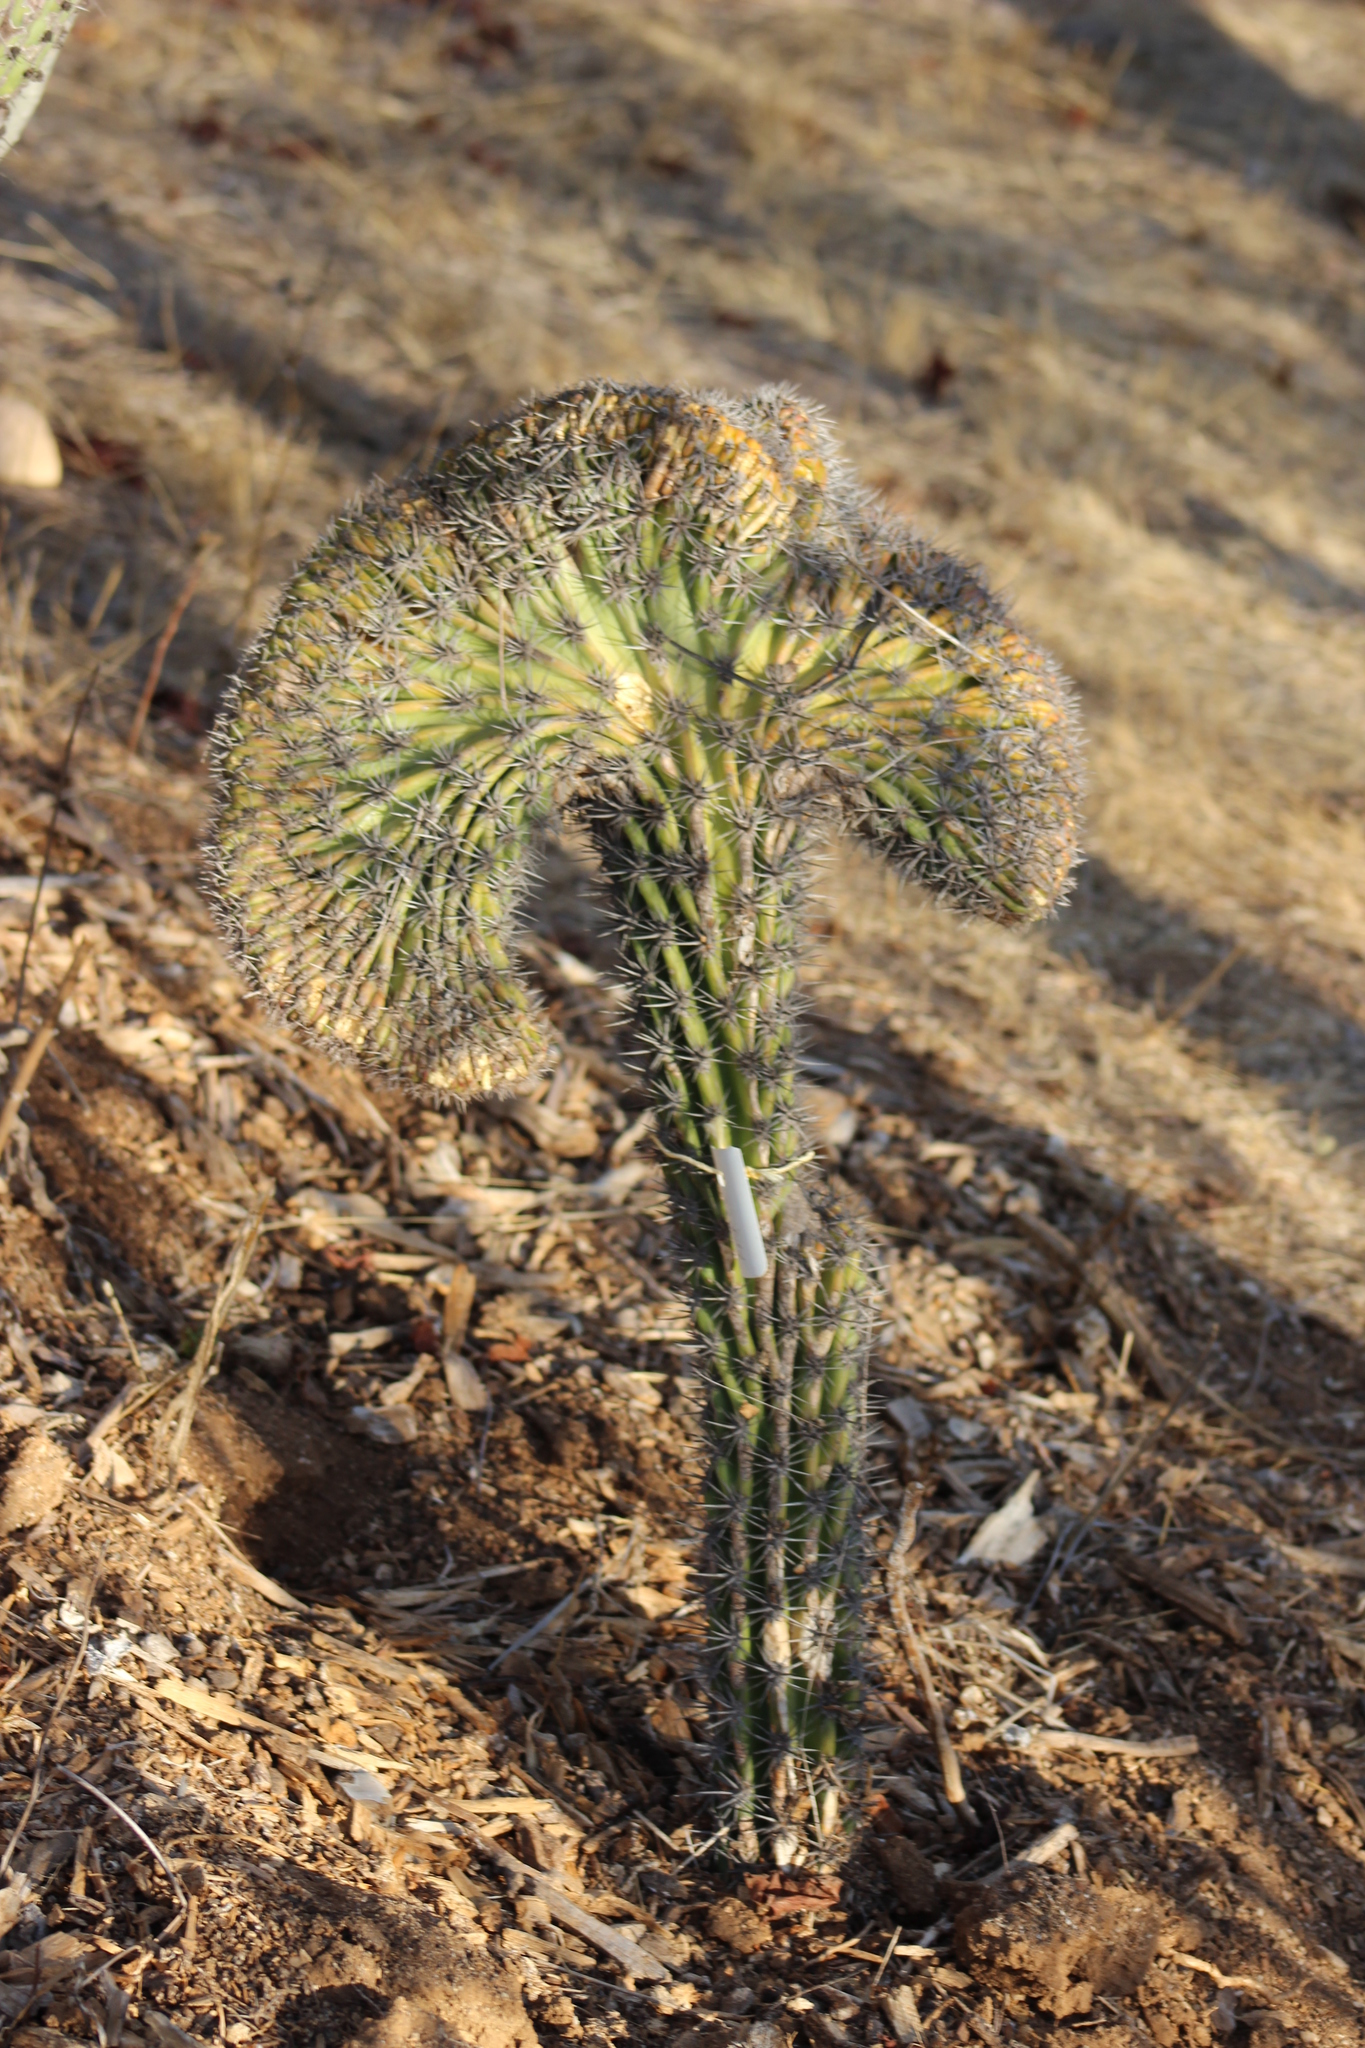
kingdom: Plantae
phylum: Tracheophyta
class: Magnoliopsida
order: Caryophyllales
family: Cactaceae
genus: Stenocereus
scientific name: Stenocereus gummosus
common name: Dagger cactus
